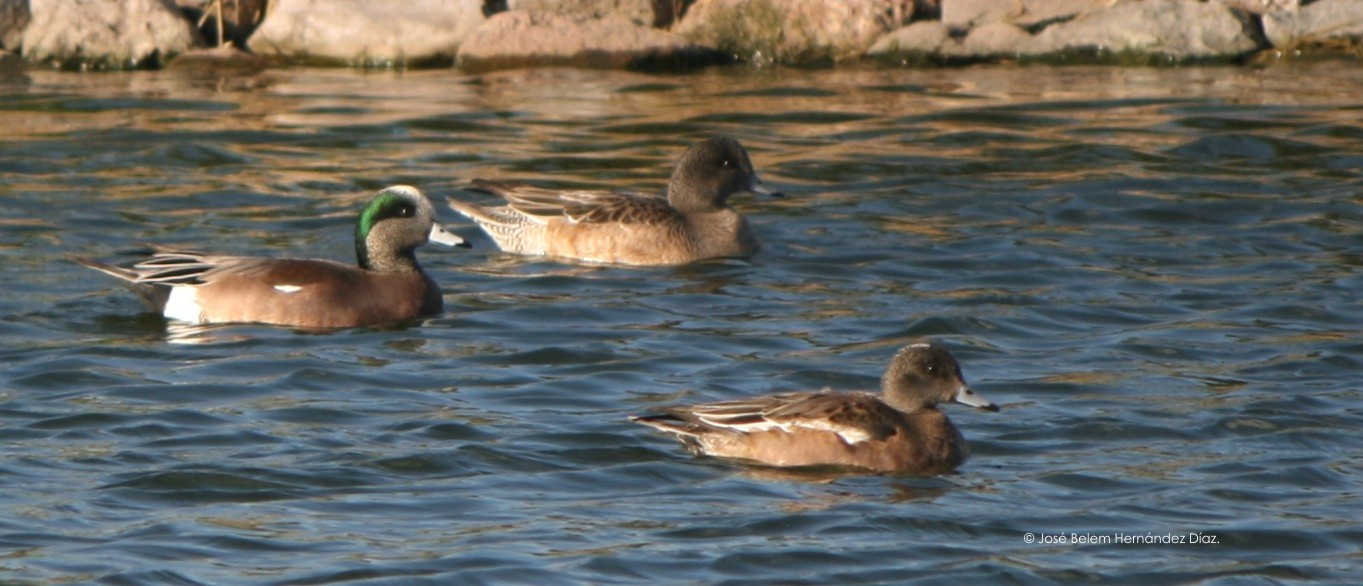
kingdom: Animalia
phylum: Chordata
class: Aves
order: Anseriformes
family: Anatidae
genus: Mareca
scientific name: Mareca americana
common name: American wigeon
